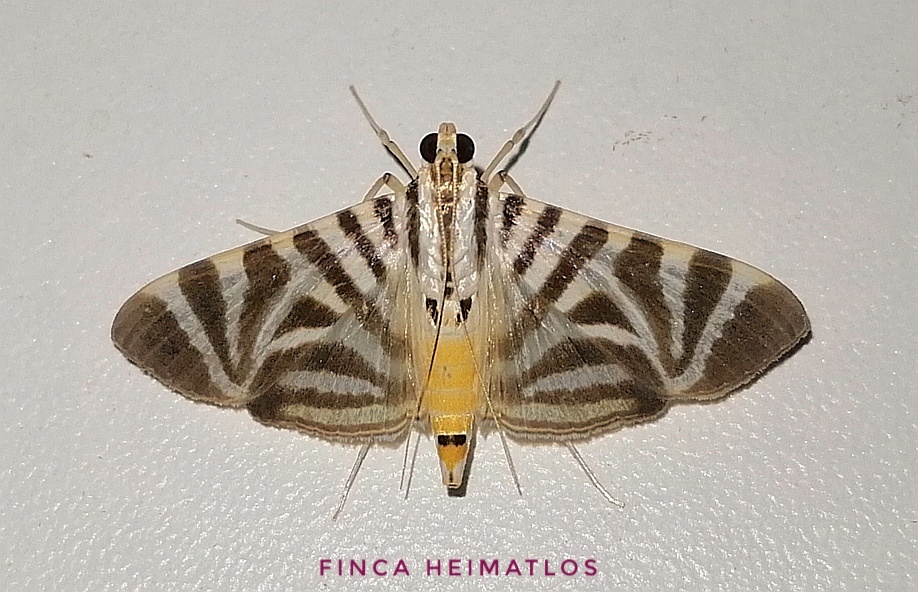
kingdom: Animalia
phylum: Arthropoda
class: Insecta
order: Lepidoptera
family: Crambidae
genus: Zebronia
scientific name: Zebronia Spilomela perspicata
